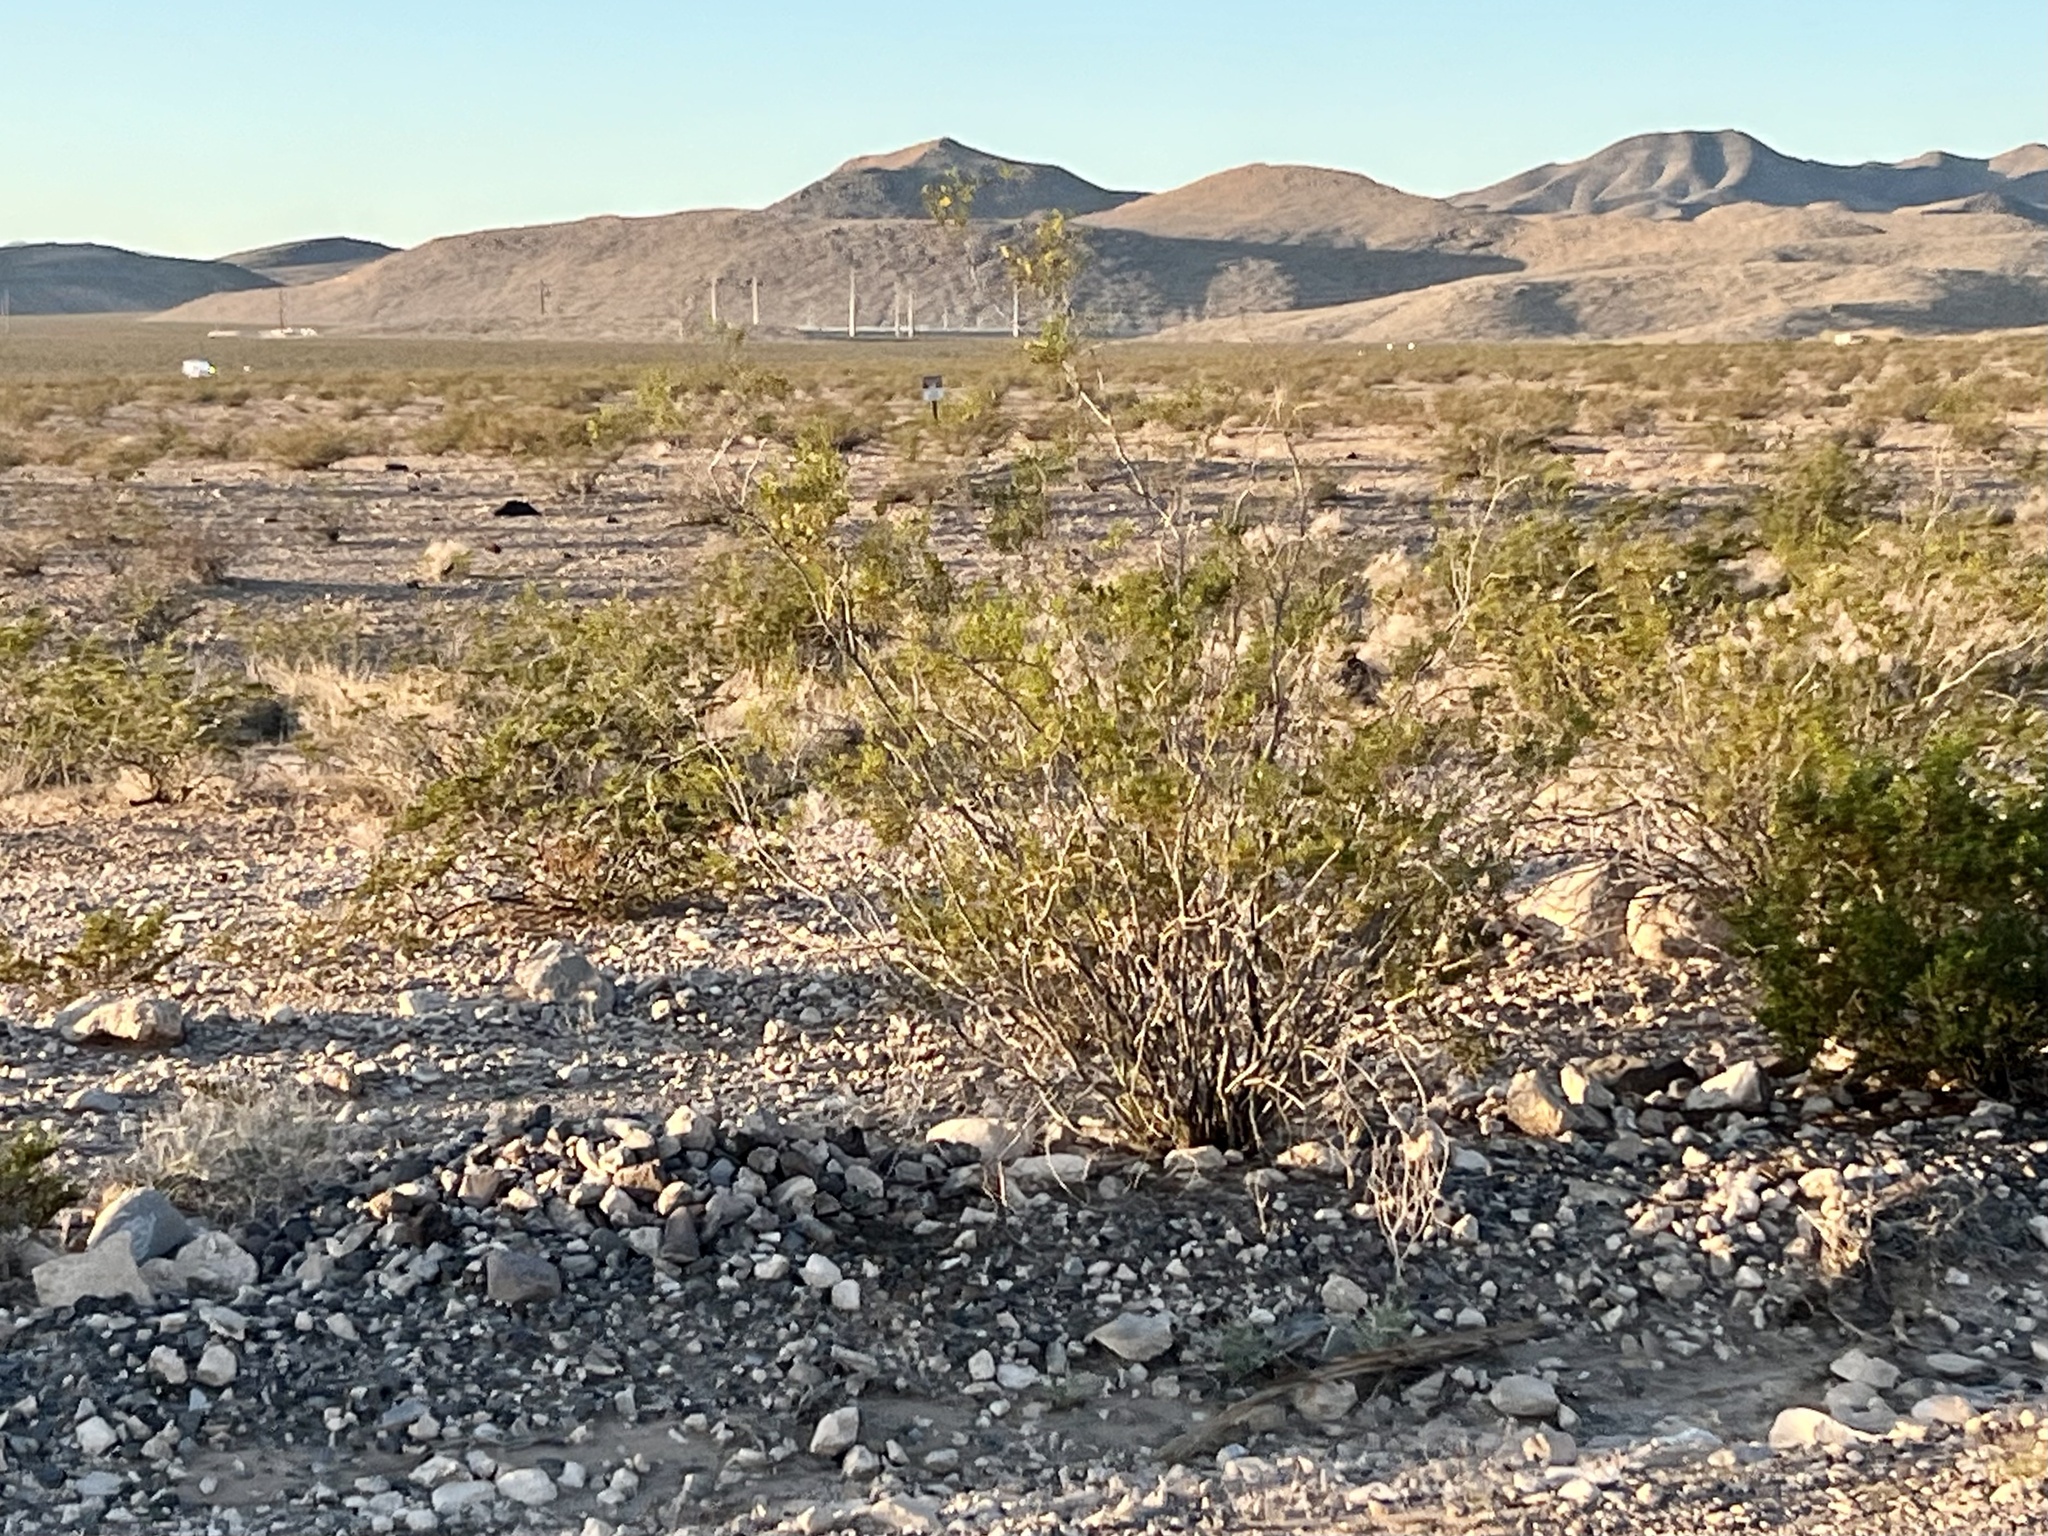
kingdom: Plantae
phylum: Tracheophyta
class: Magnoliopsida
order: Zygophyllales
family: Zygophyllaceae
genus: Larrea
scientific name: Larrea tridentata
